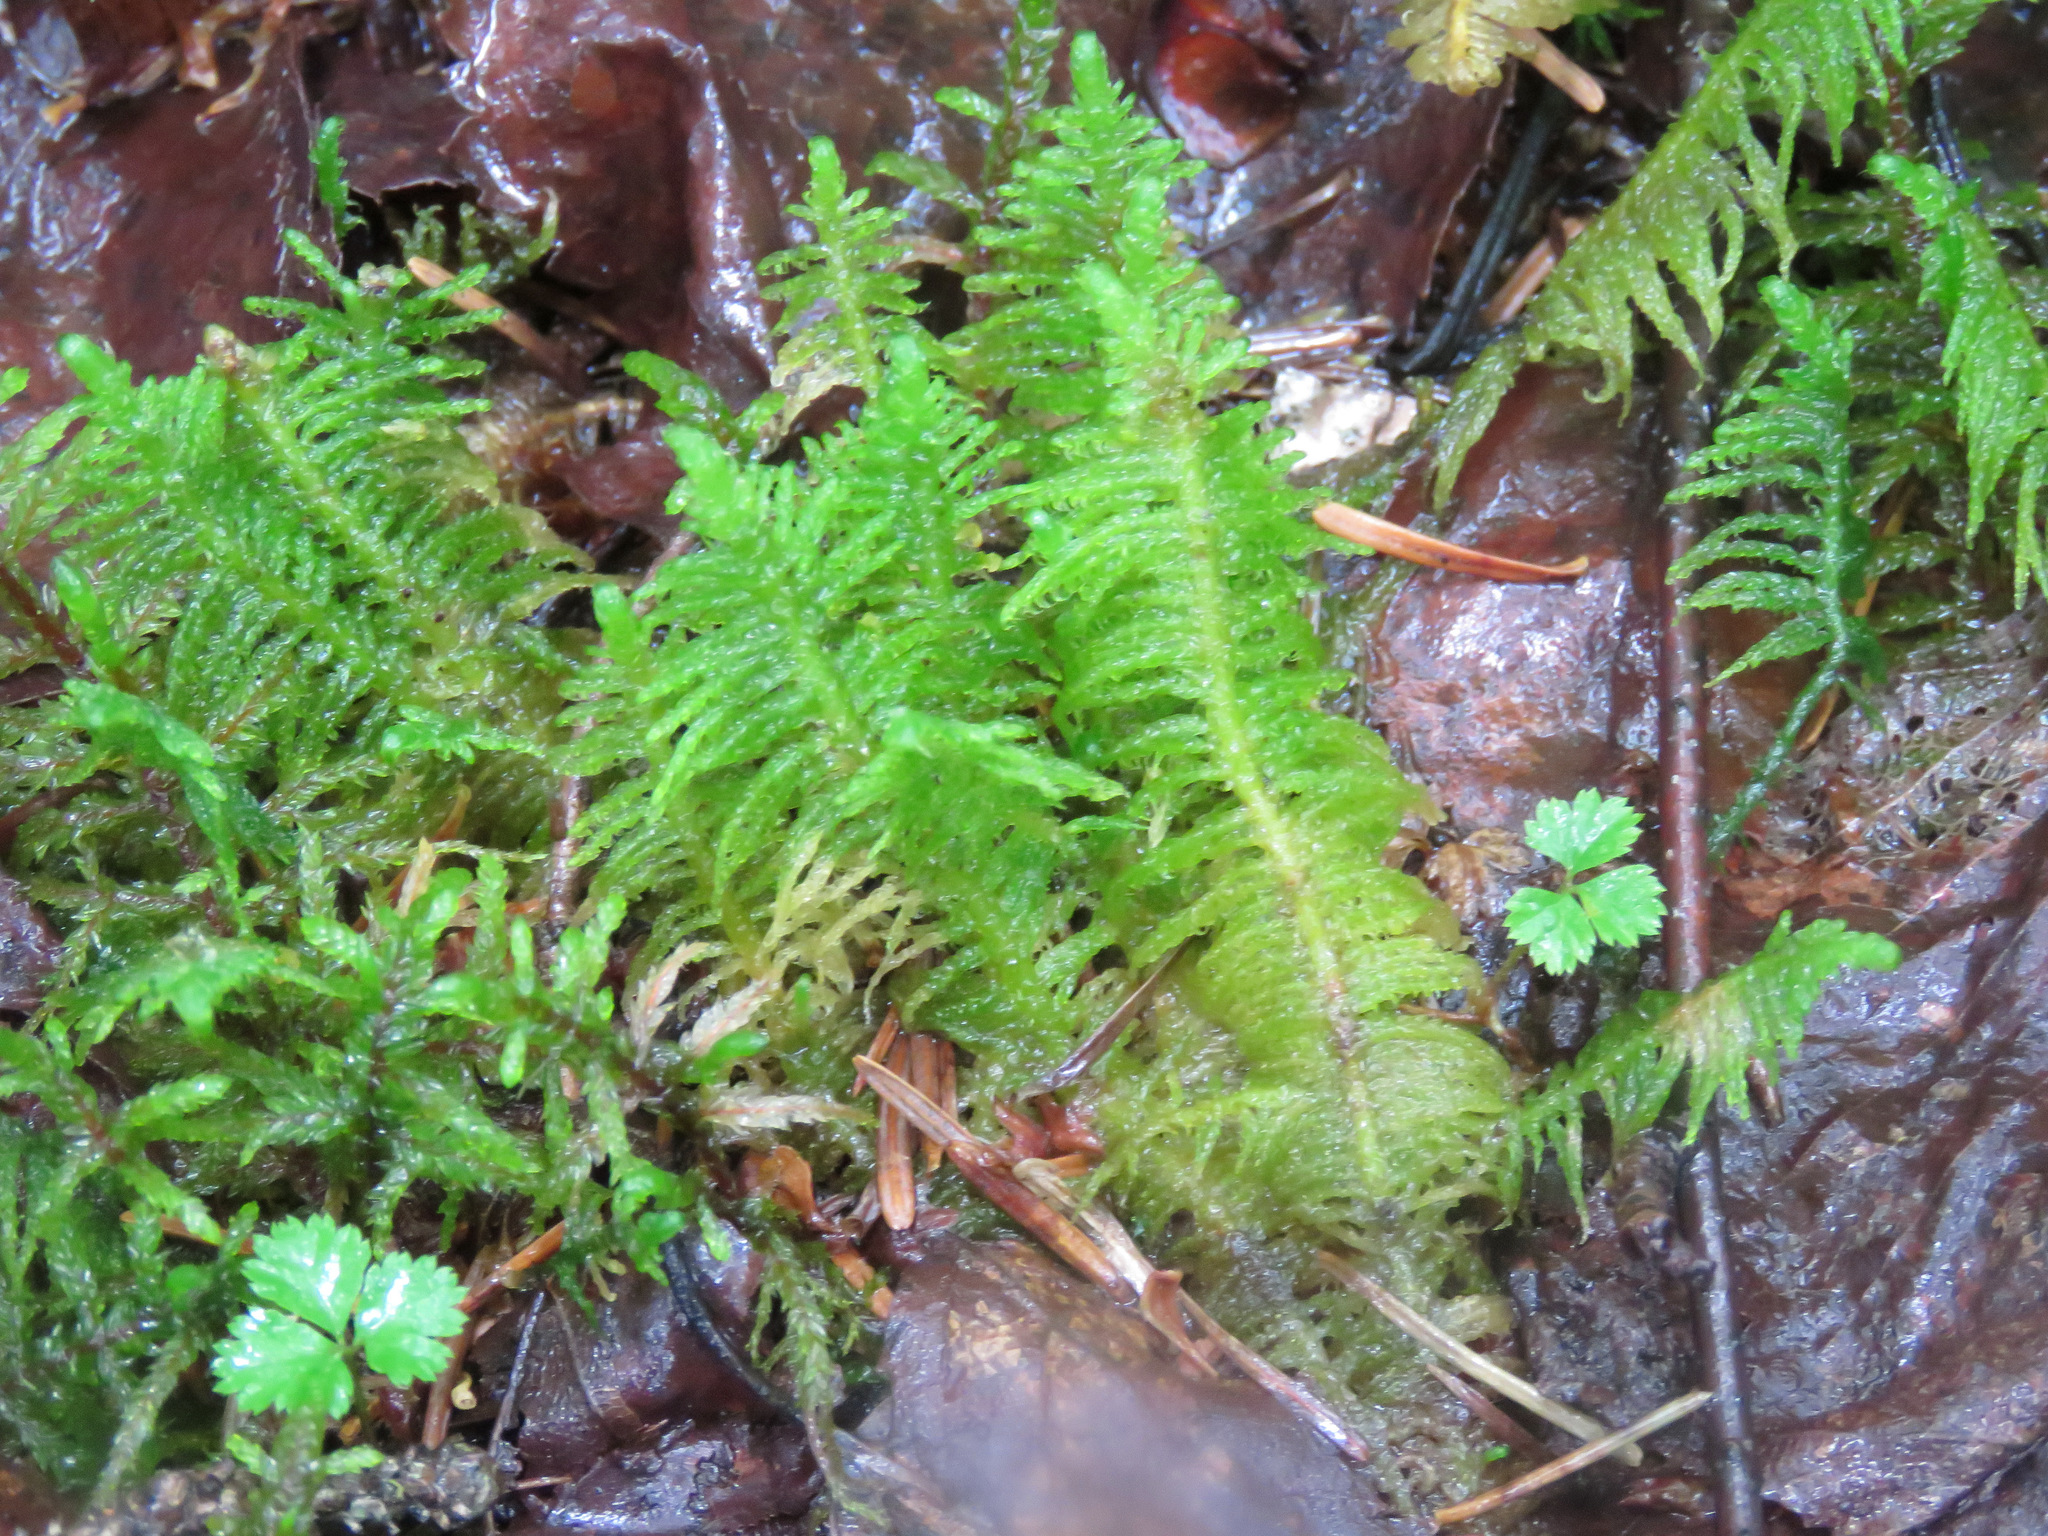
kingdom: Plantae
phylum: Bryophyta
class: Bryopsida
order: Hypnales
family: Pylaisiaceae
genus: Ptilium
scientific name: Ptilium crista-castrensis
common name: Knight's plume moss
